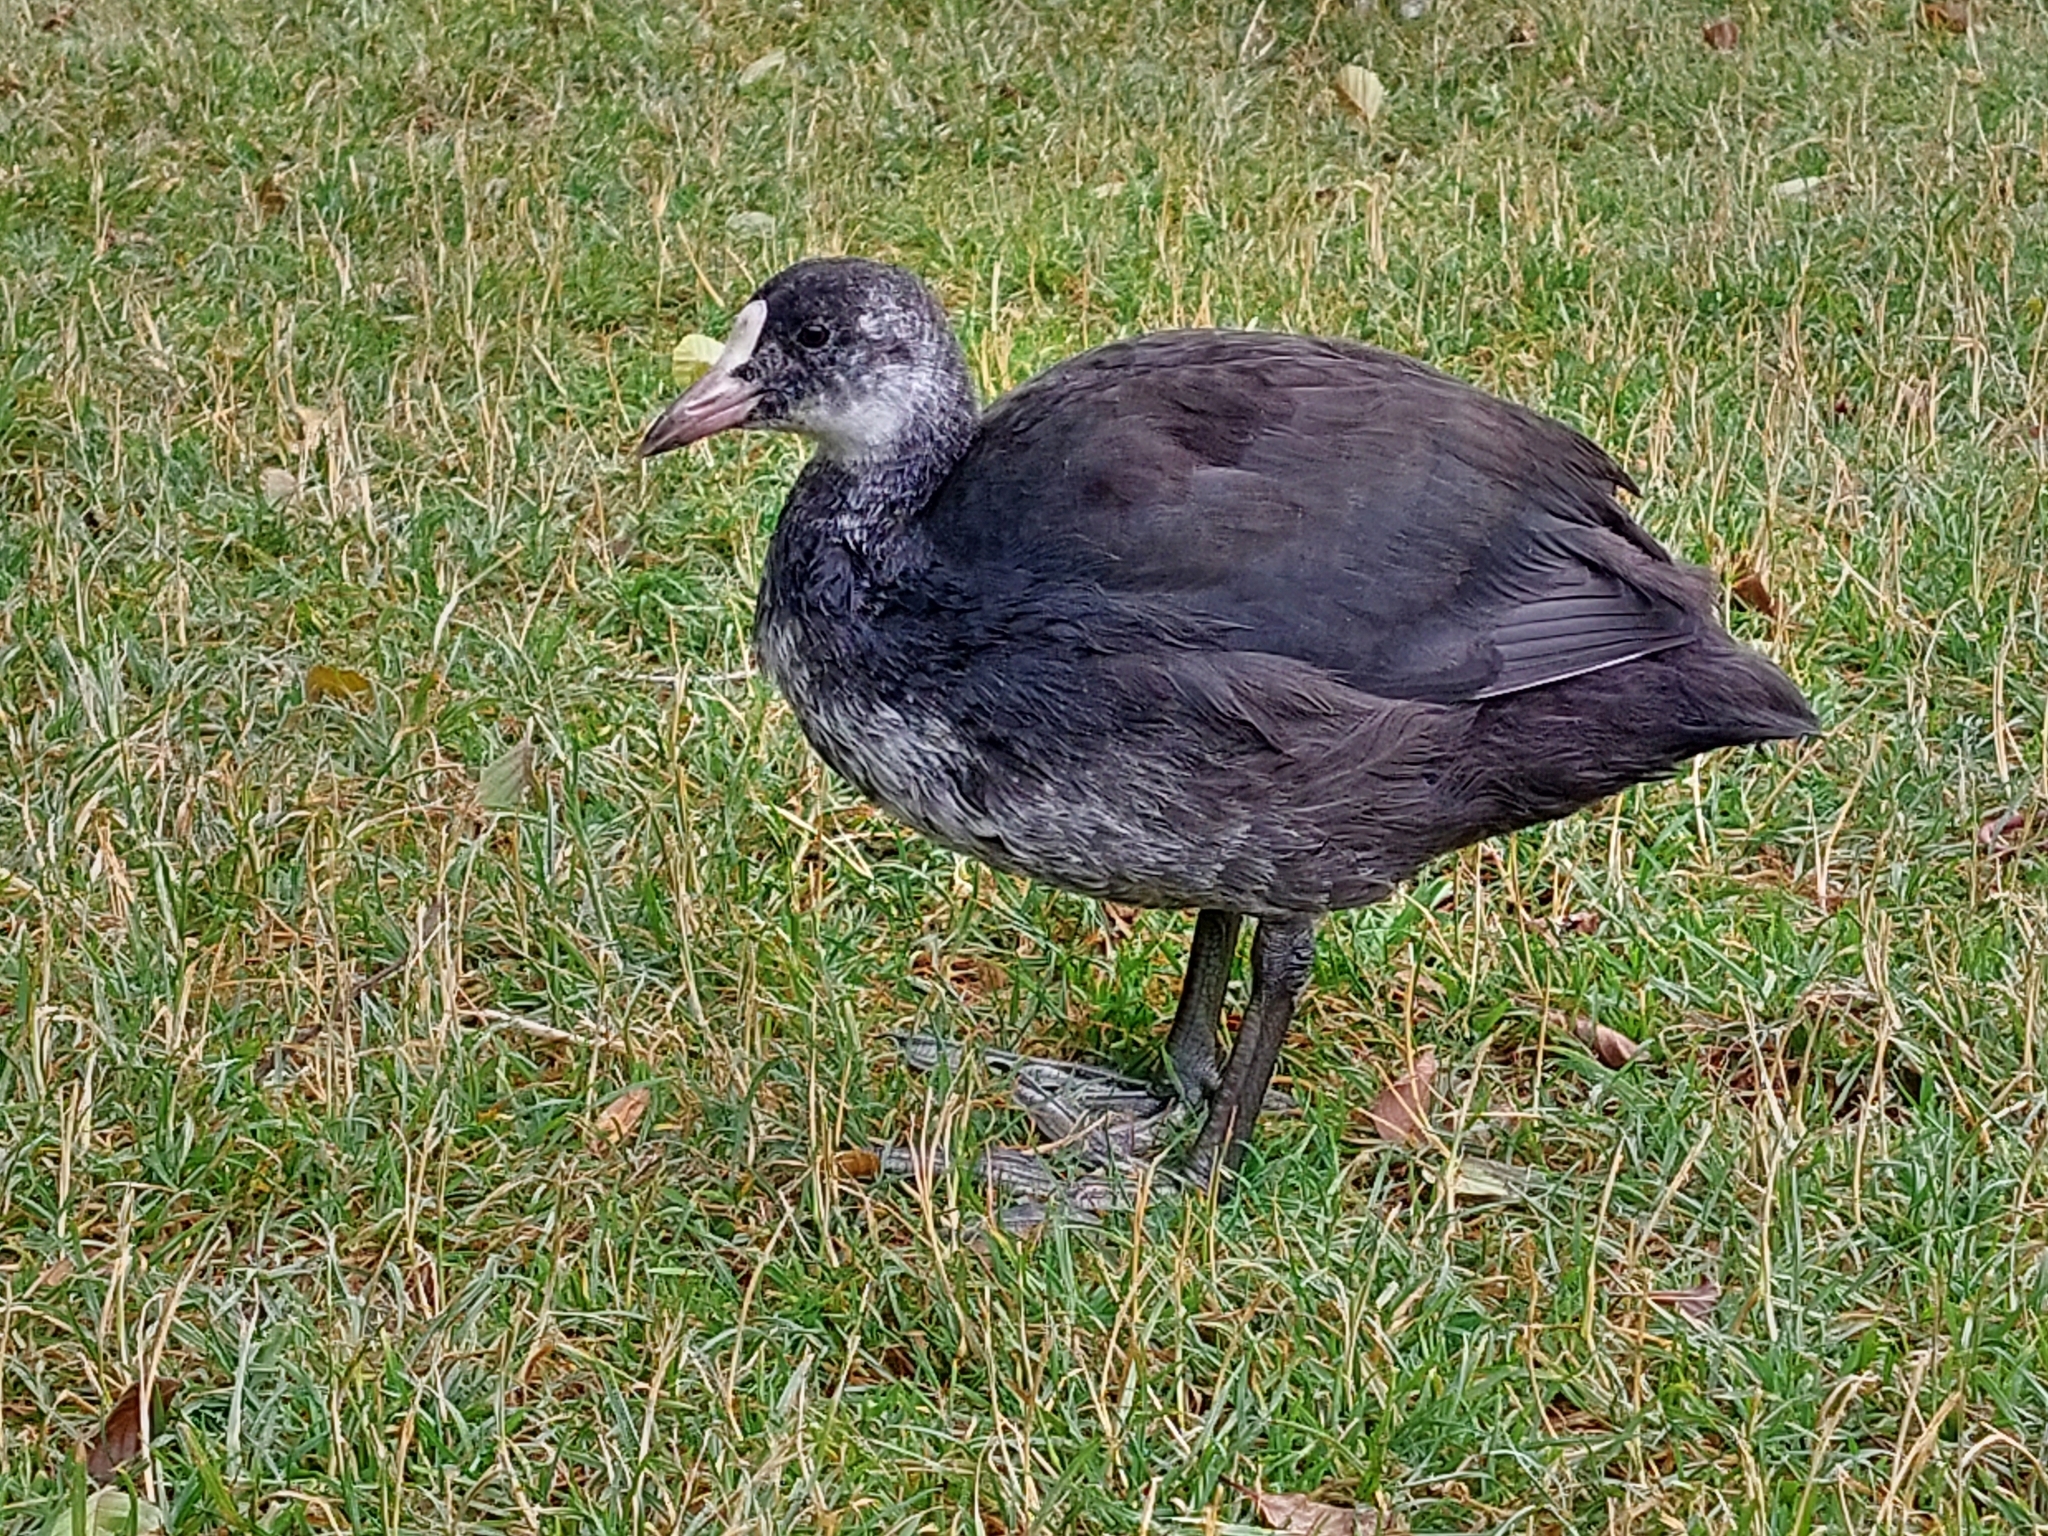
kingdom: Animalia
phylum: Chordata
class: Aves
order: Gruiformes
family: Rallidae
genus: Fulica
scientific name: Fulica atra
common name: Eurasian coot
